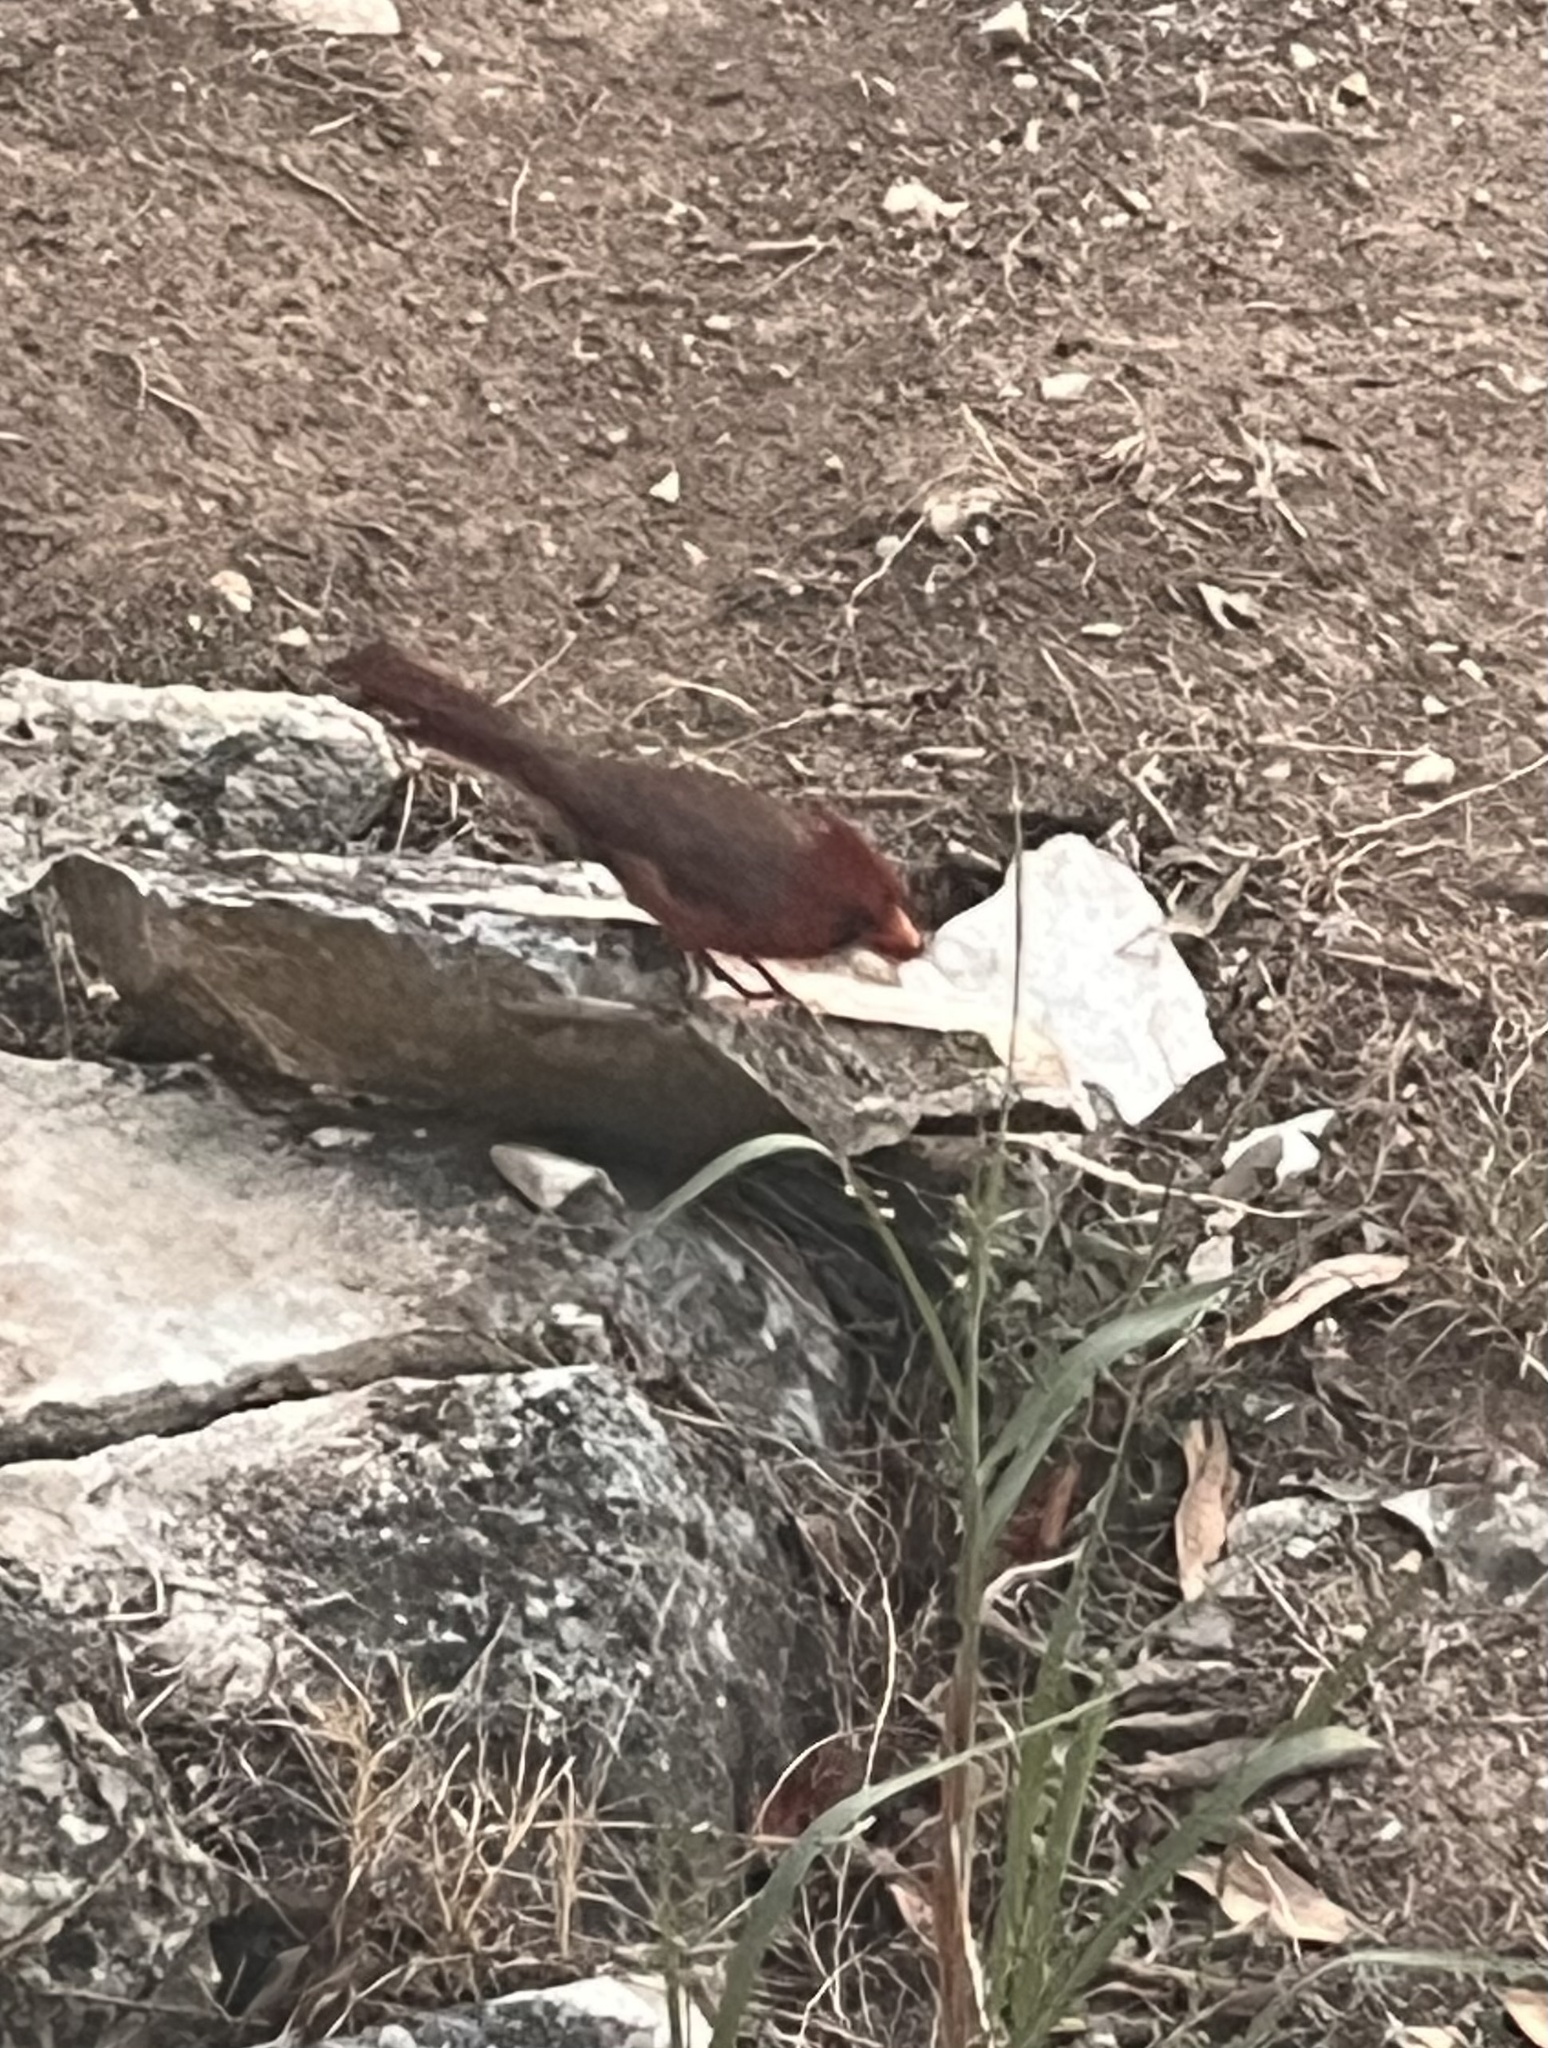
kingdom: Animalia
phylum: Chordata
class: Aves
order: Passeriformes
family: Cardinalidae
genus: Cardinalis
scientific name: Cardinalis cardinalis
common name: Northern cardinal
